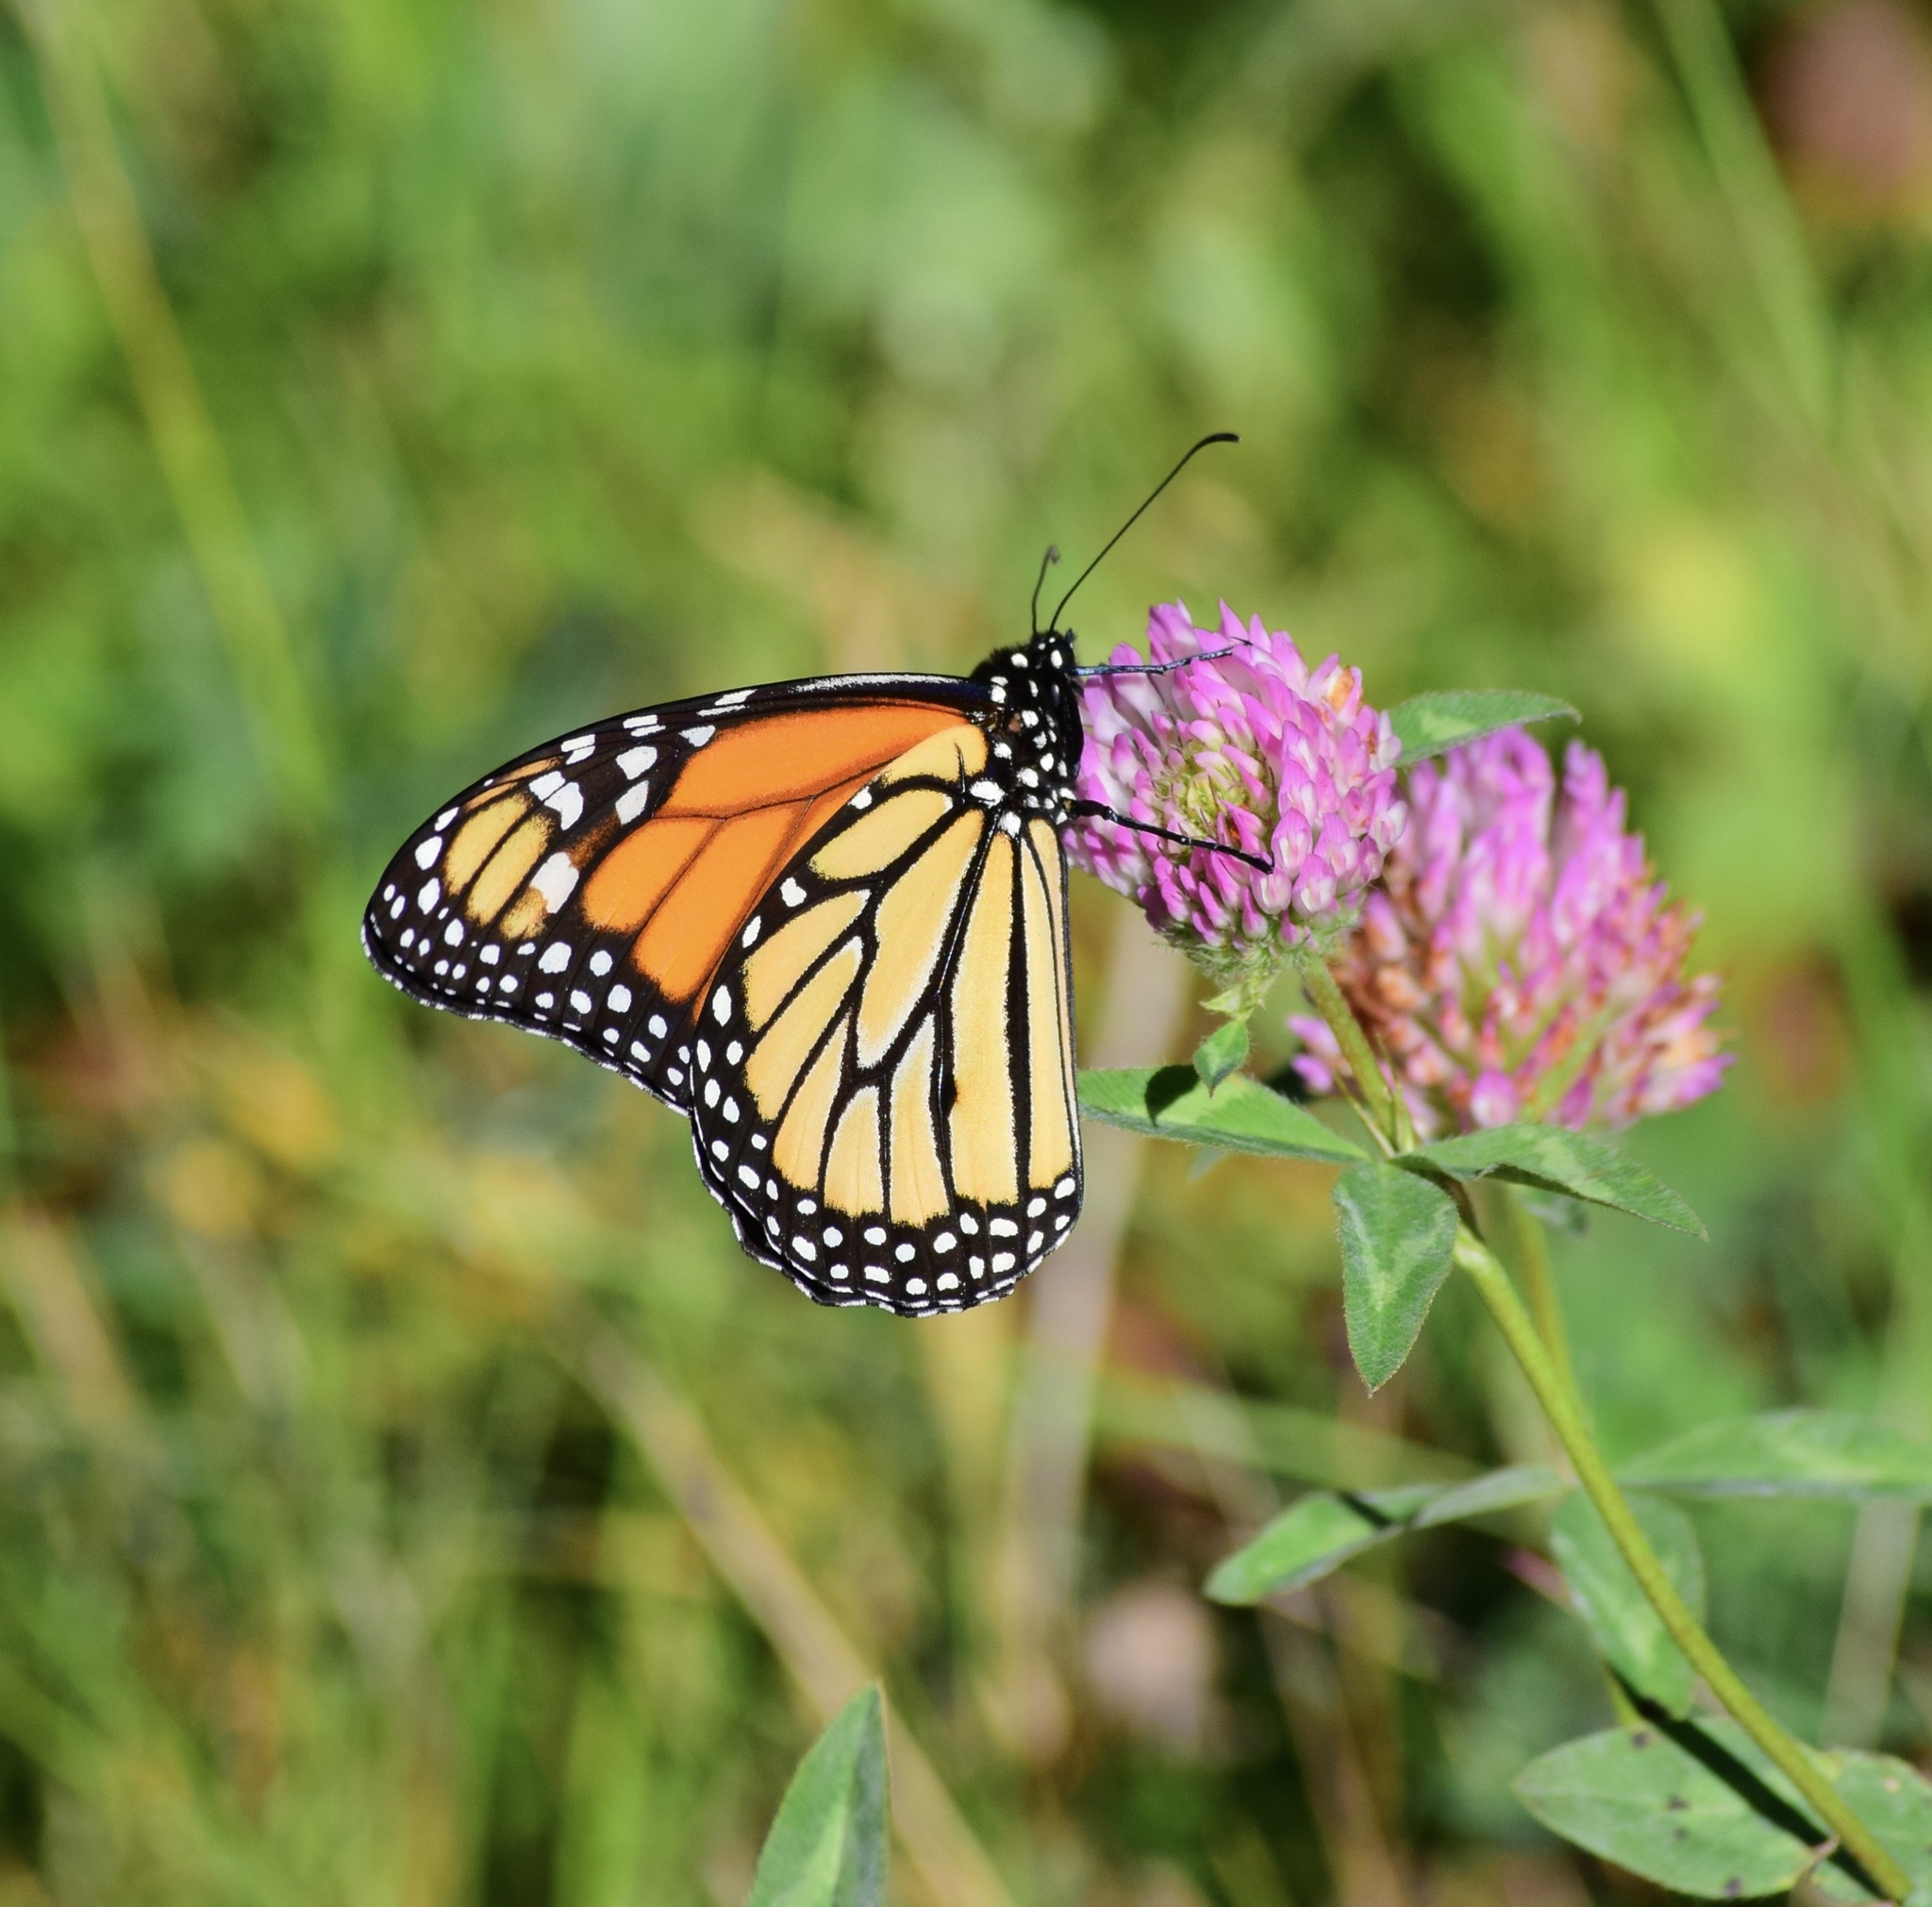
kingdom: Animalia
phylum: Arthropoda
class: Insecta
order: Lepidoptera
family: Nymphalidae
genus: Danaus
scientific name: Danaus plexippus
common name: Monarch
